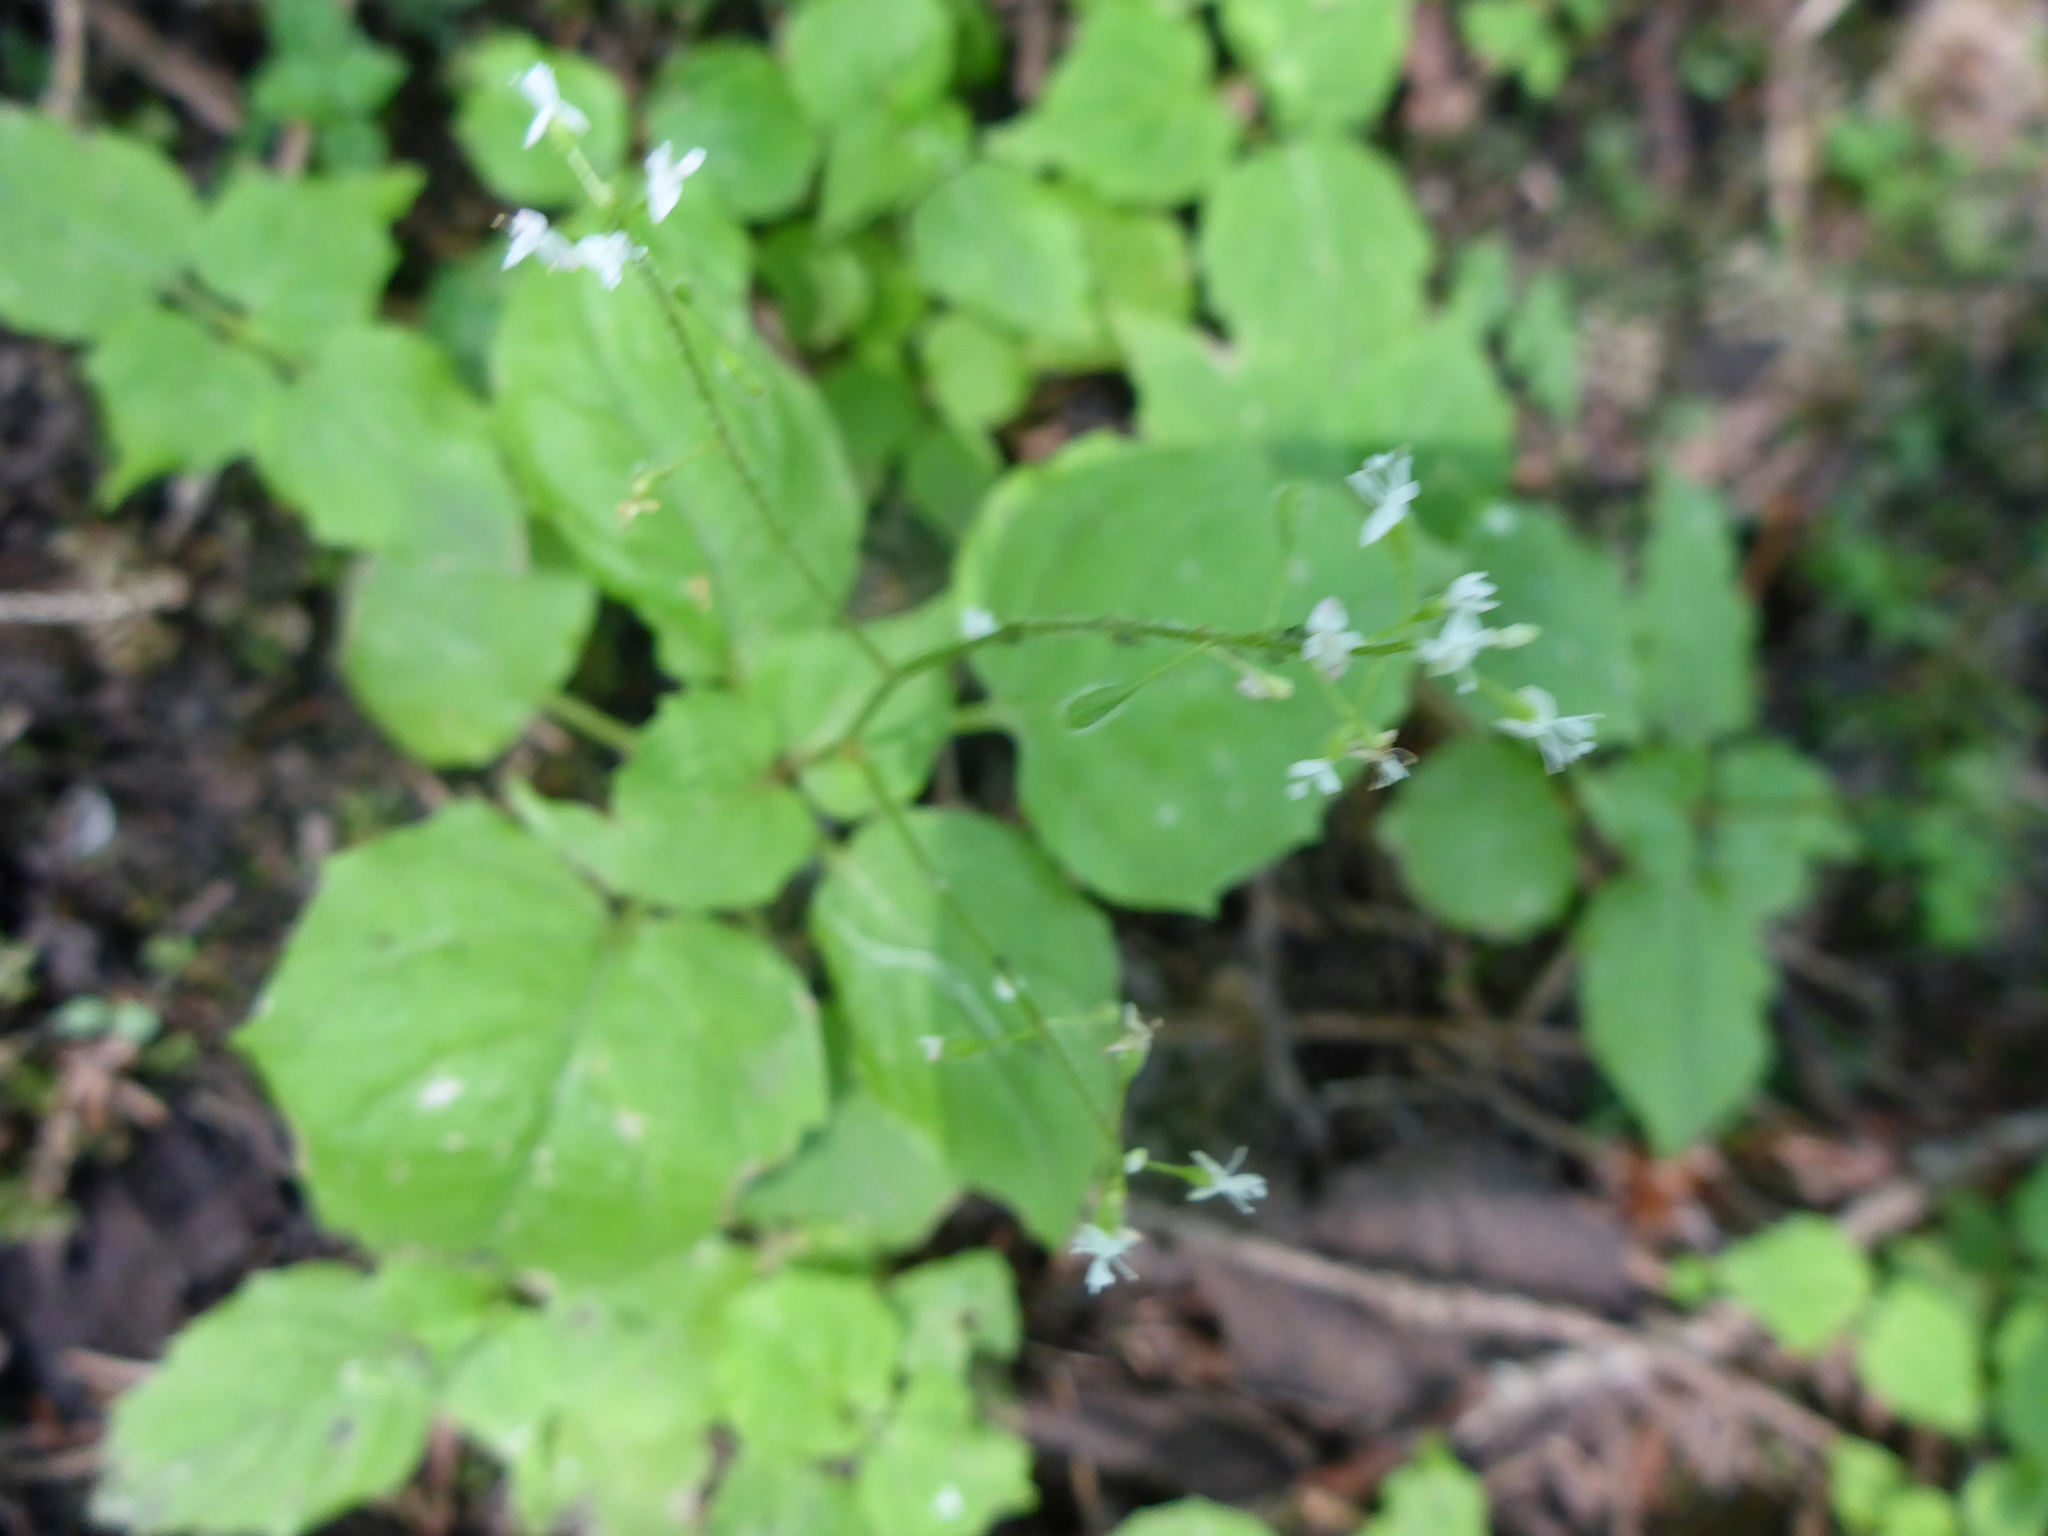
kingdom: Plantae
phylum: Tracheophyta
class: Magnoliopsida
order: Myrtales
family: Onagraceae
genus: Circaea
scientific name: Circaea alpina
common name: Alpine enchanter's-nightshade
